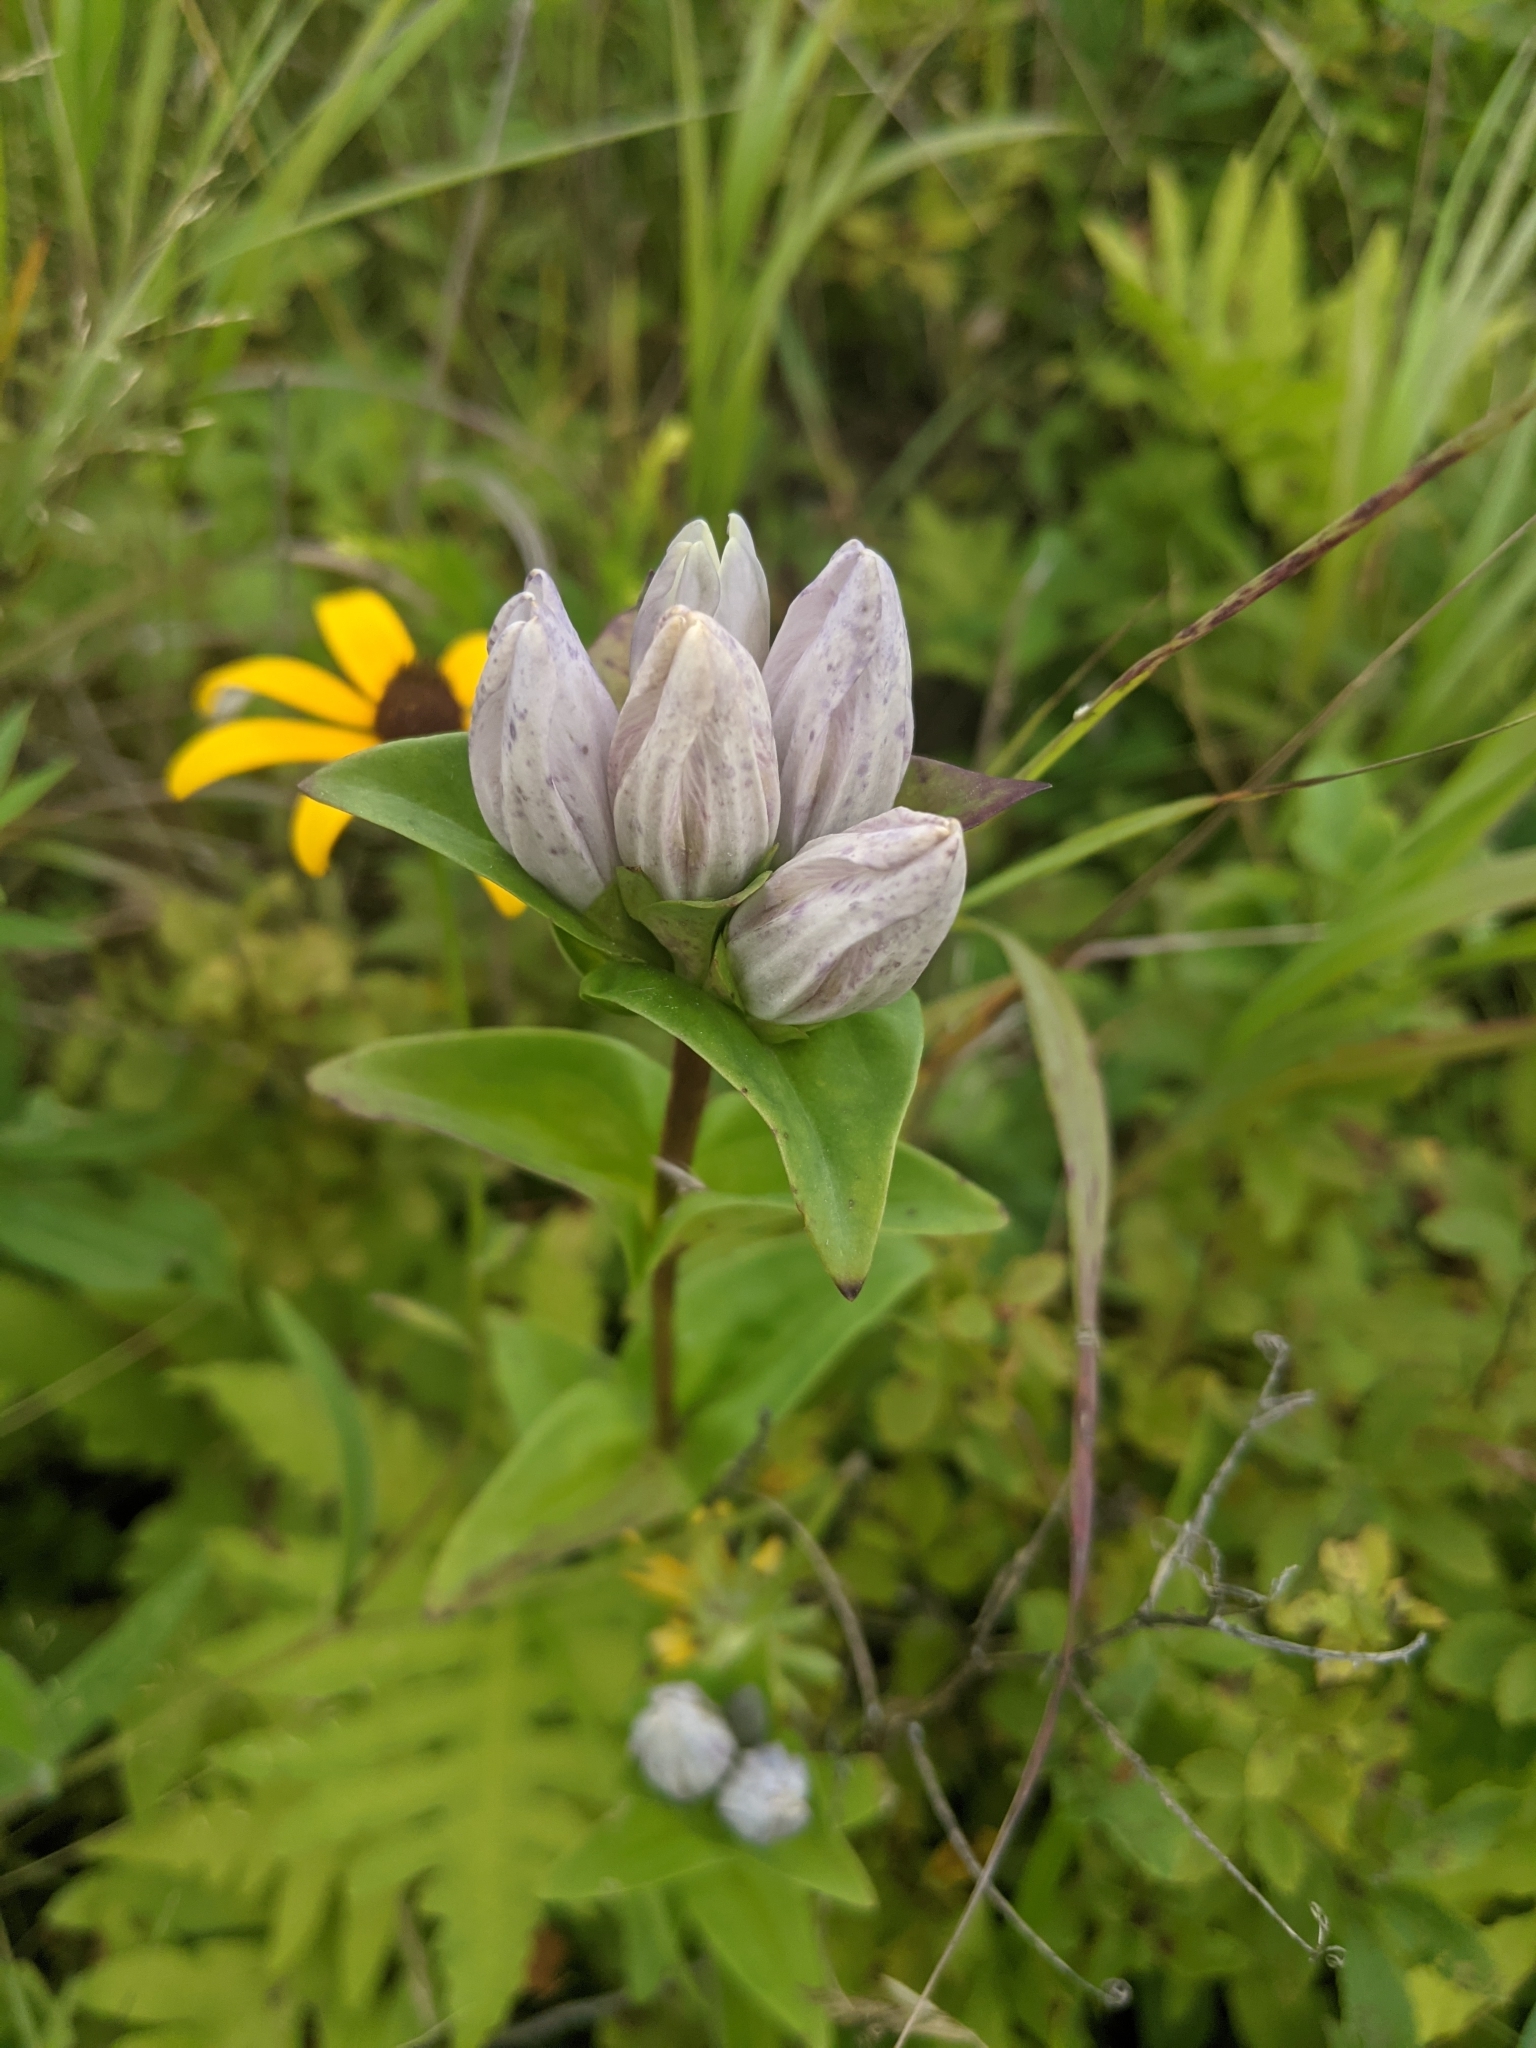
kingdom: Plantae
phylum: Tracheophyta
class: Magnoliopsida
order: Gentianales
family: Gentianaceae
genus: Gentiana
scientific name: Gentiana rubricaulis
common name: Purple-stemmed gentian
